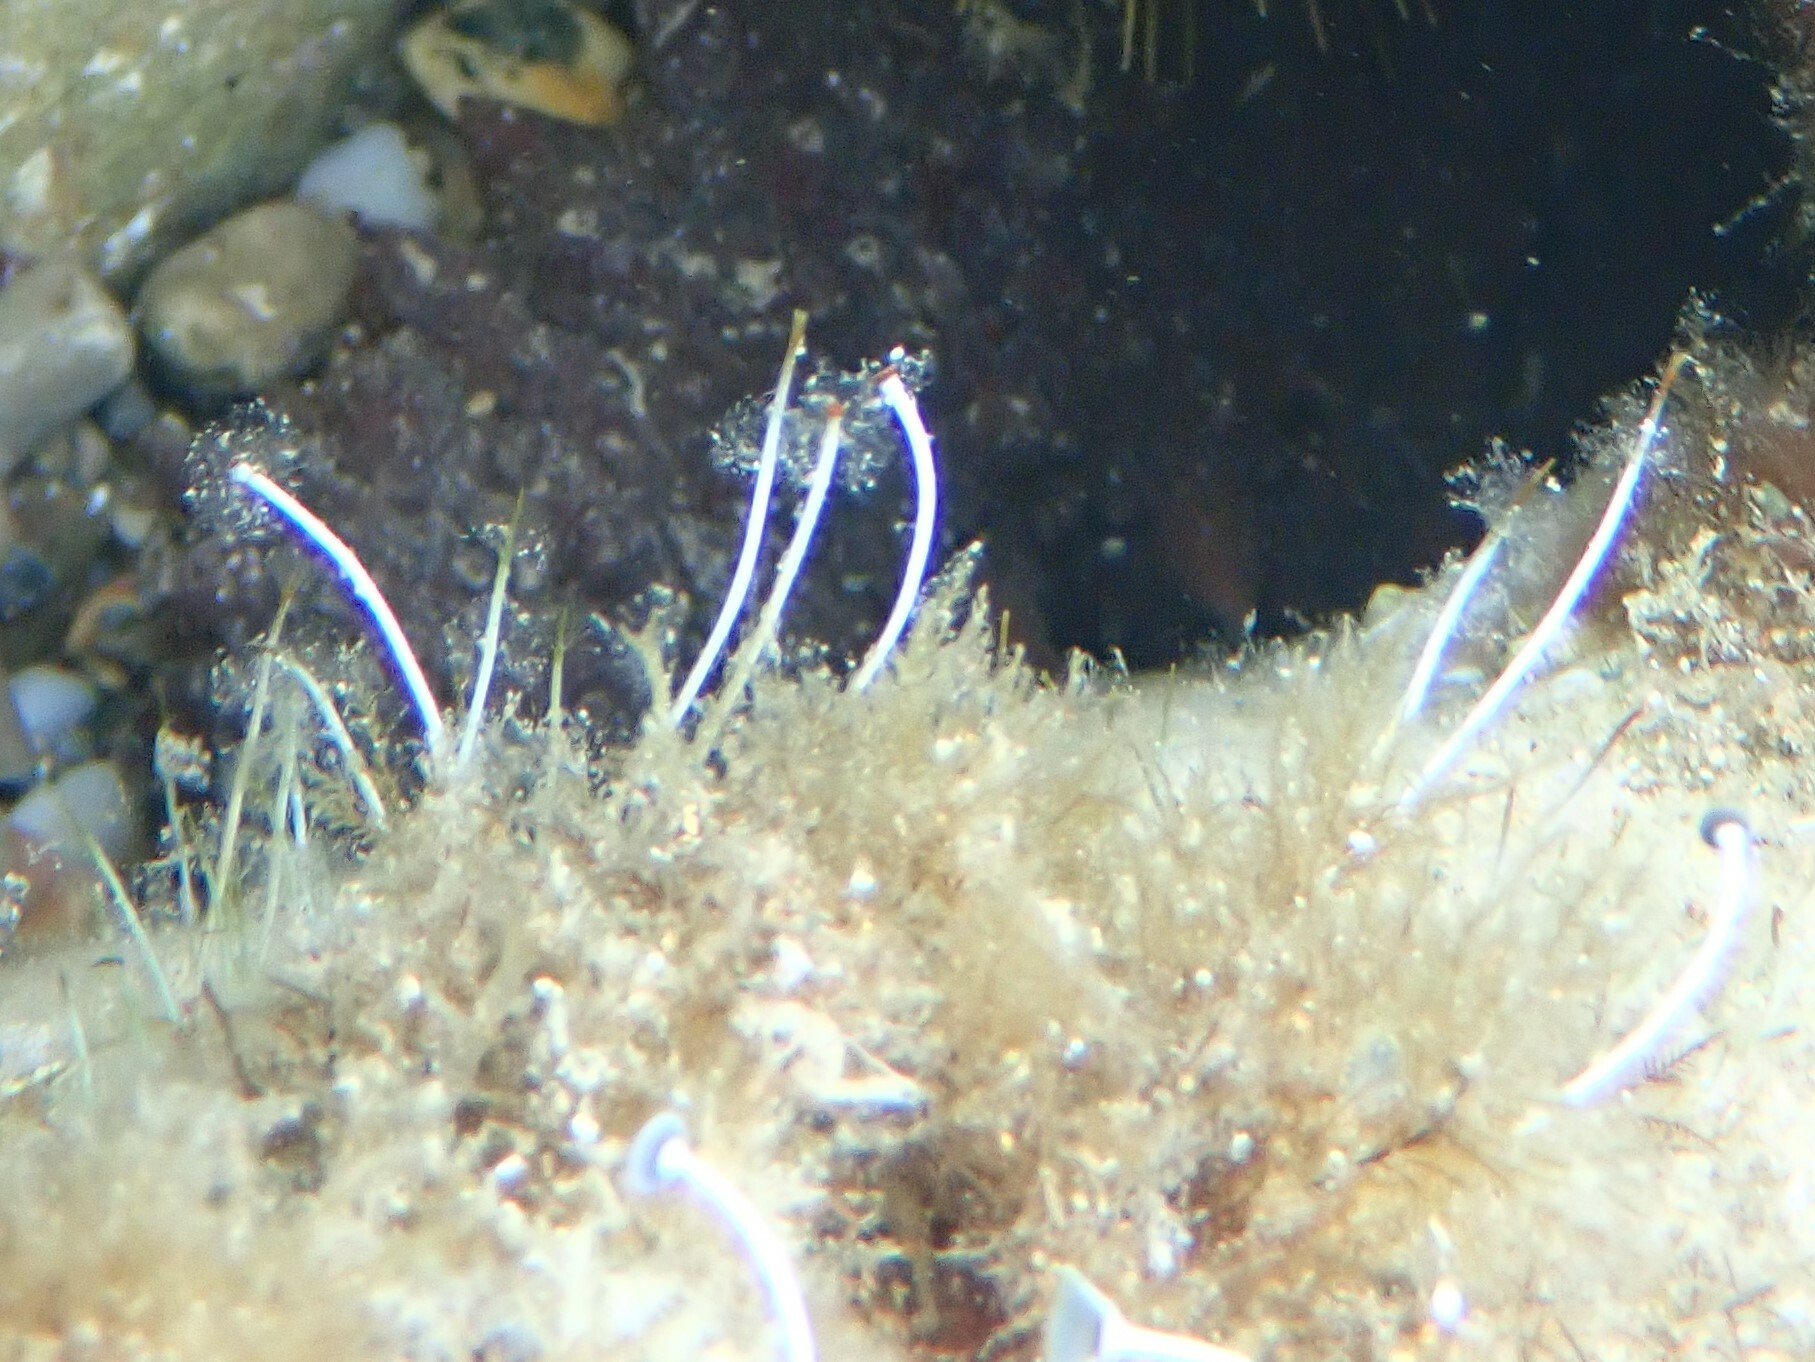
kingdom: Plantae
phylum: Chlorophyta
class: Ulvophyceae
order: Dasycladales
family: Polyphysaceae
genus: Acetabularia
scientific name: Acetabularia acetabulum
